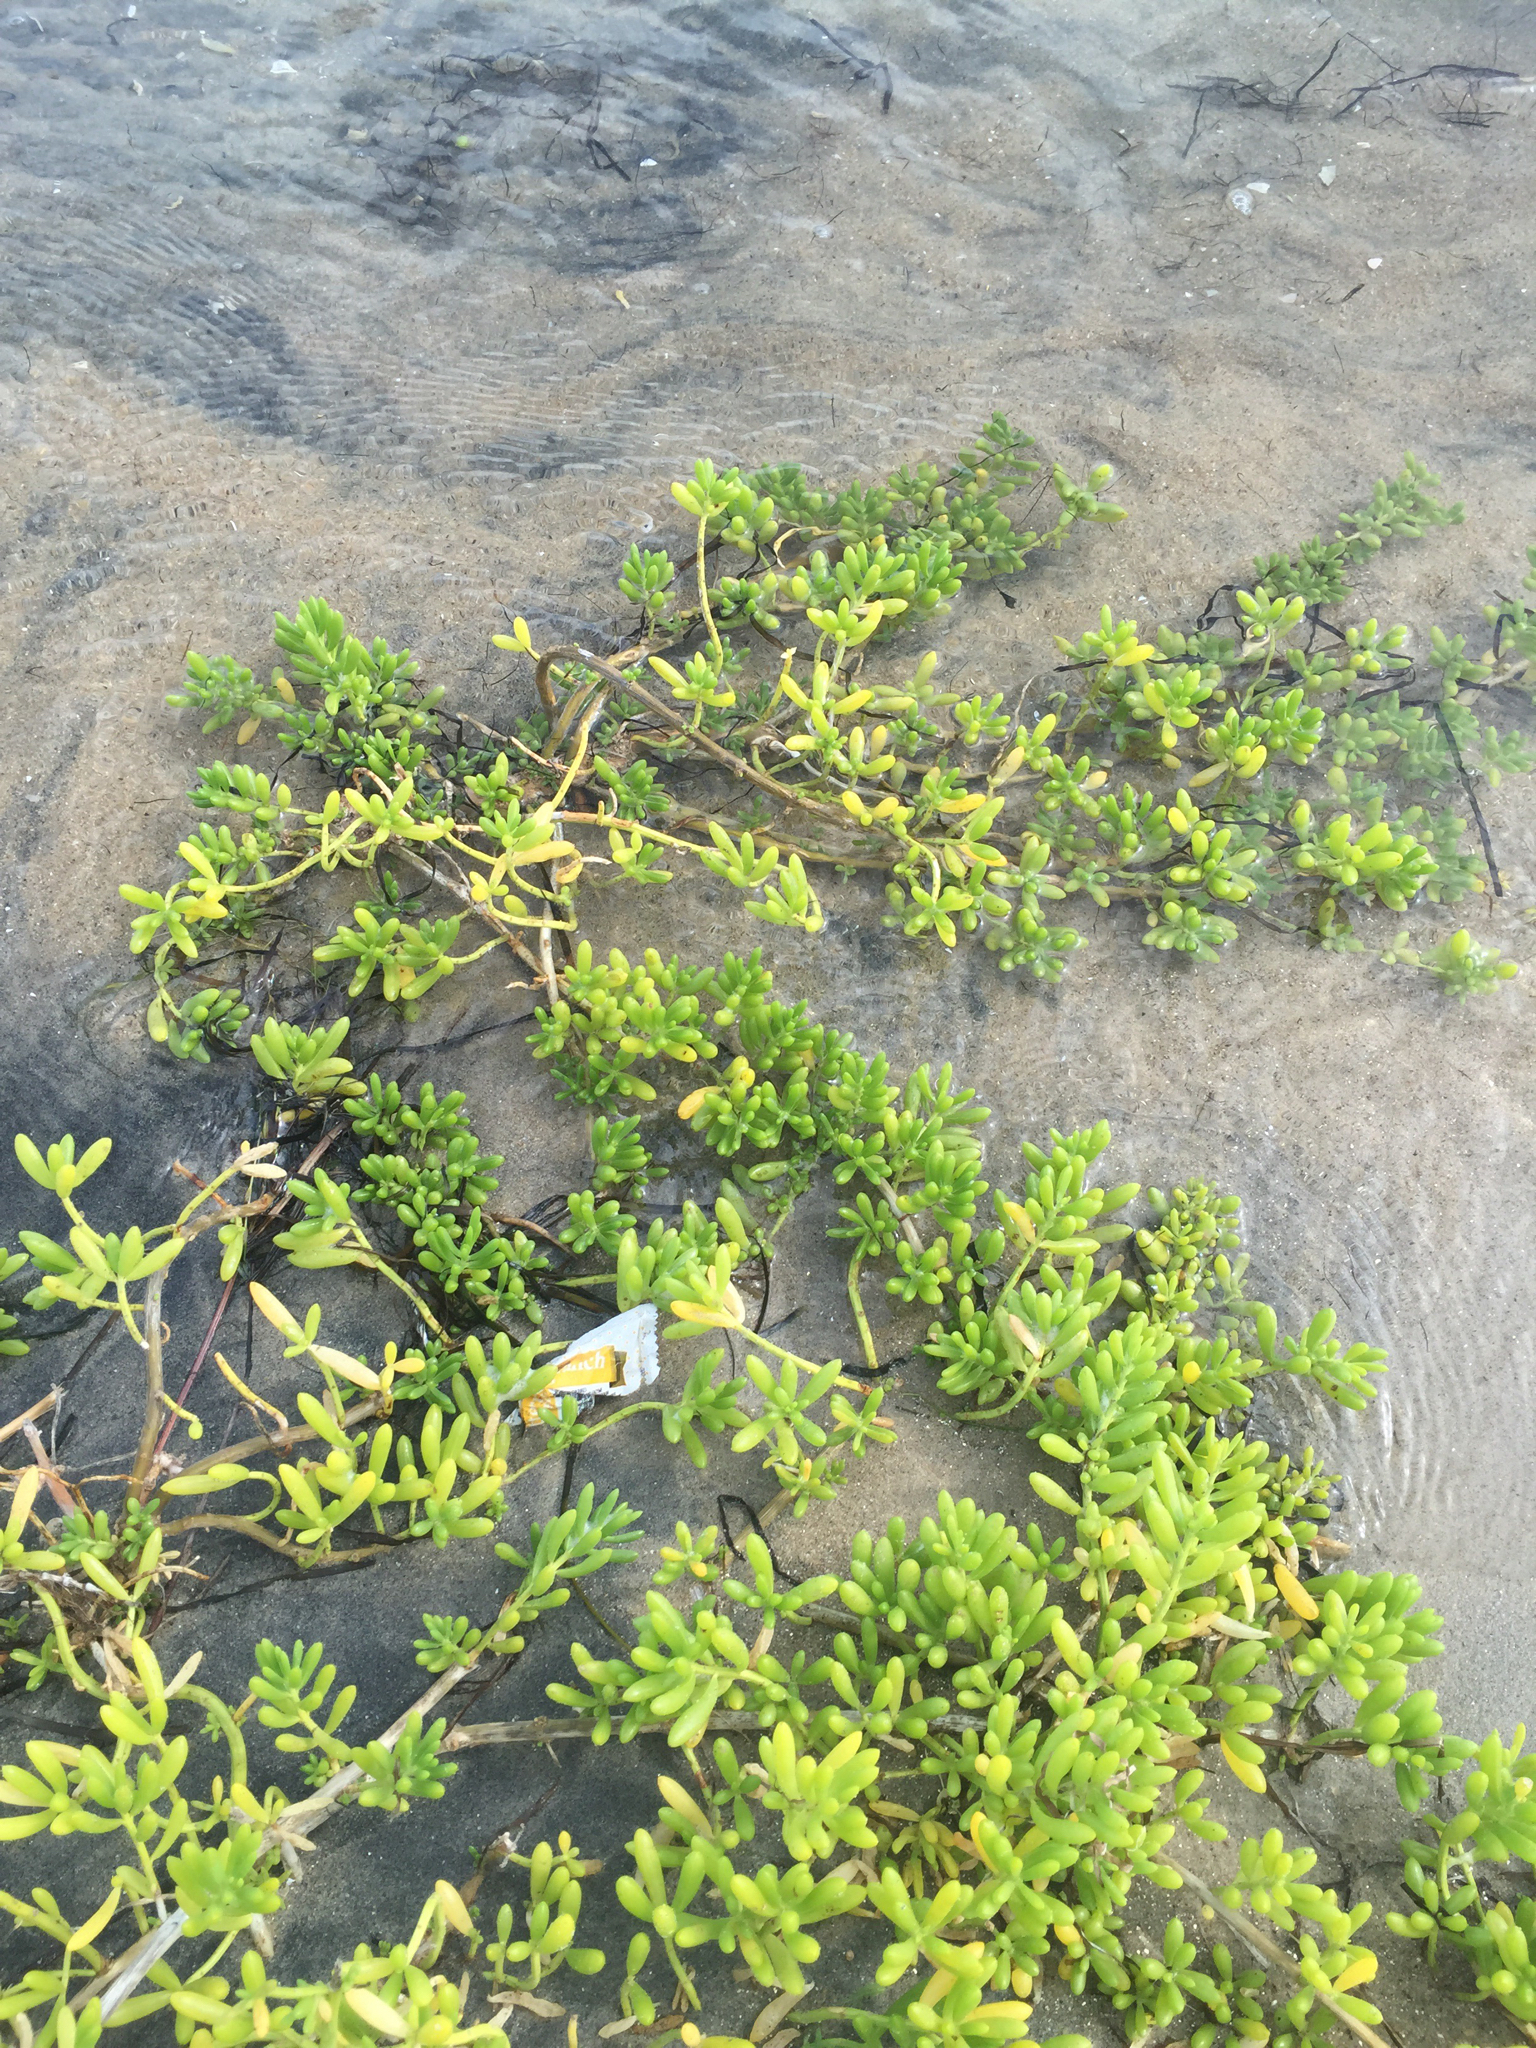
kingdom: Plantae
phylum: Tracheophyta
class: Magnoliopsida
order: Brassicales
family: Bataceae
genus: Batis
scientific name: Batis maritima
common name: Turtleweed
